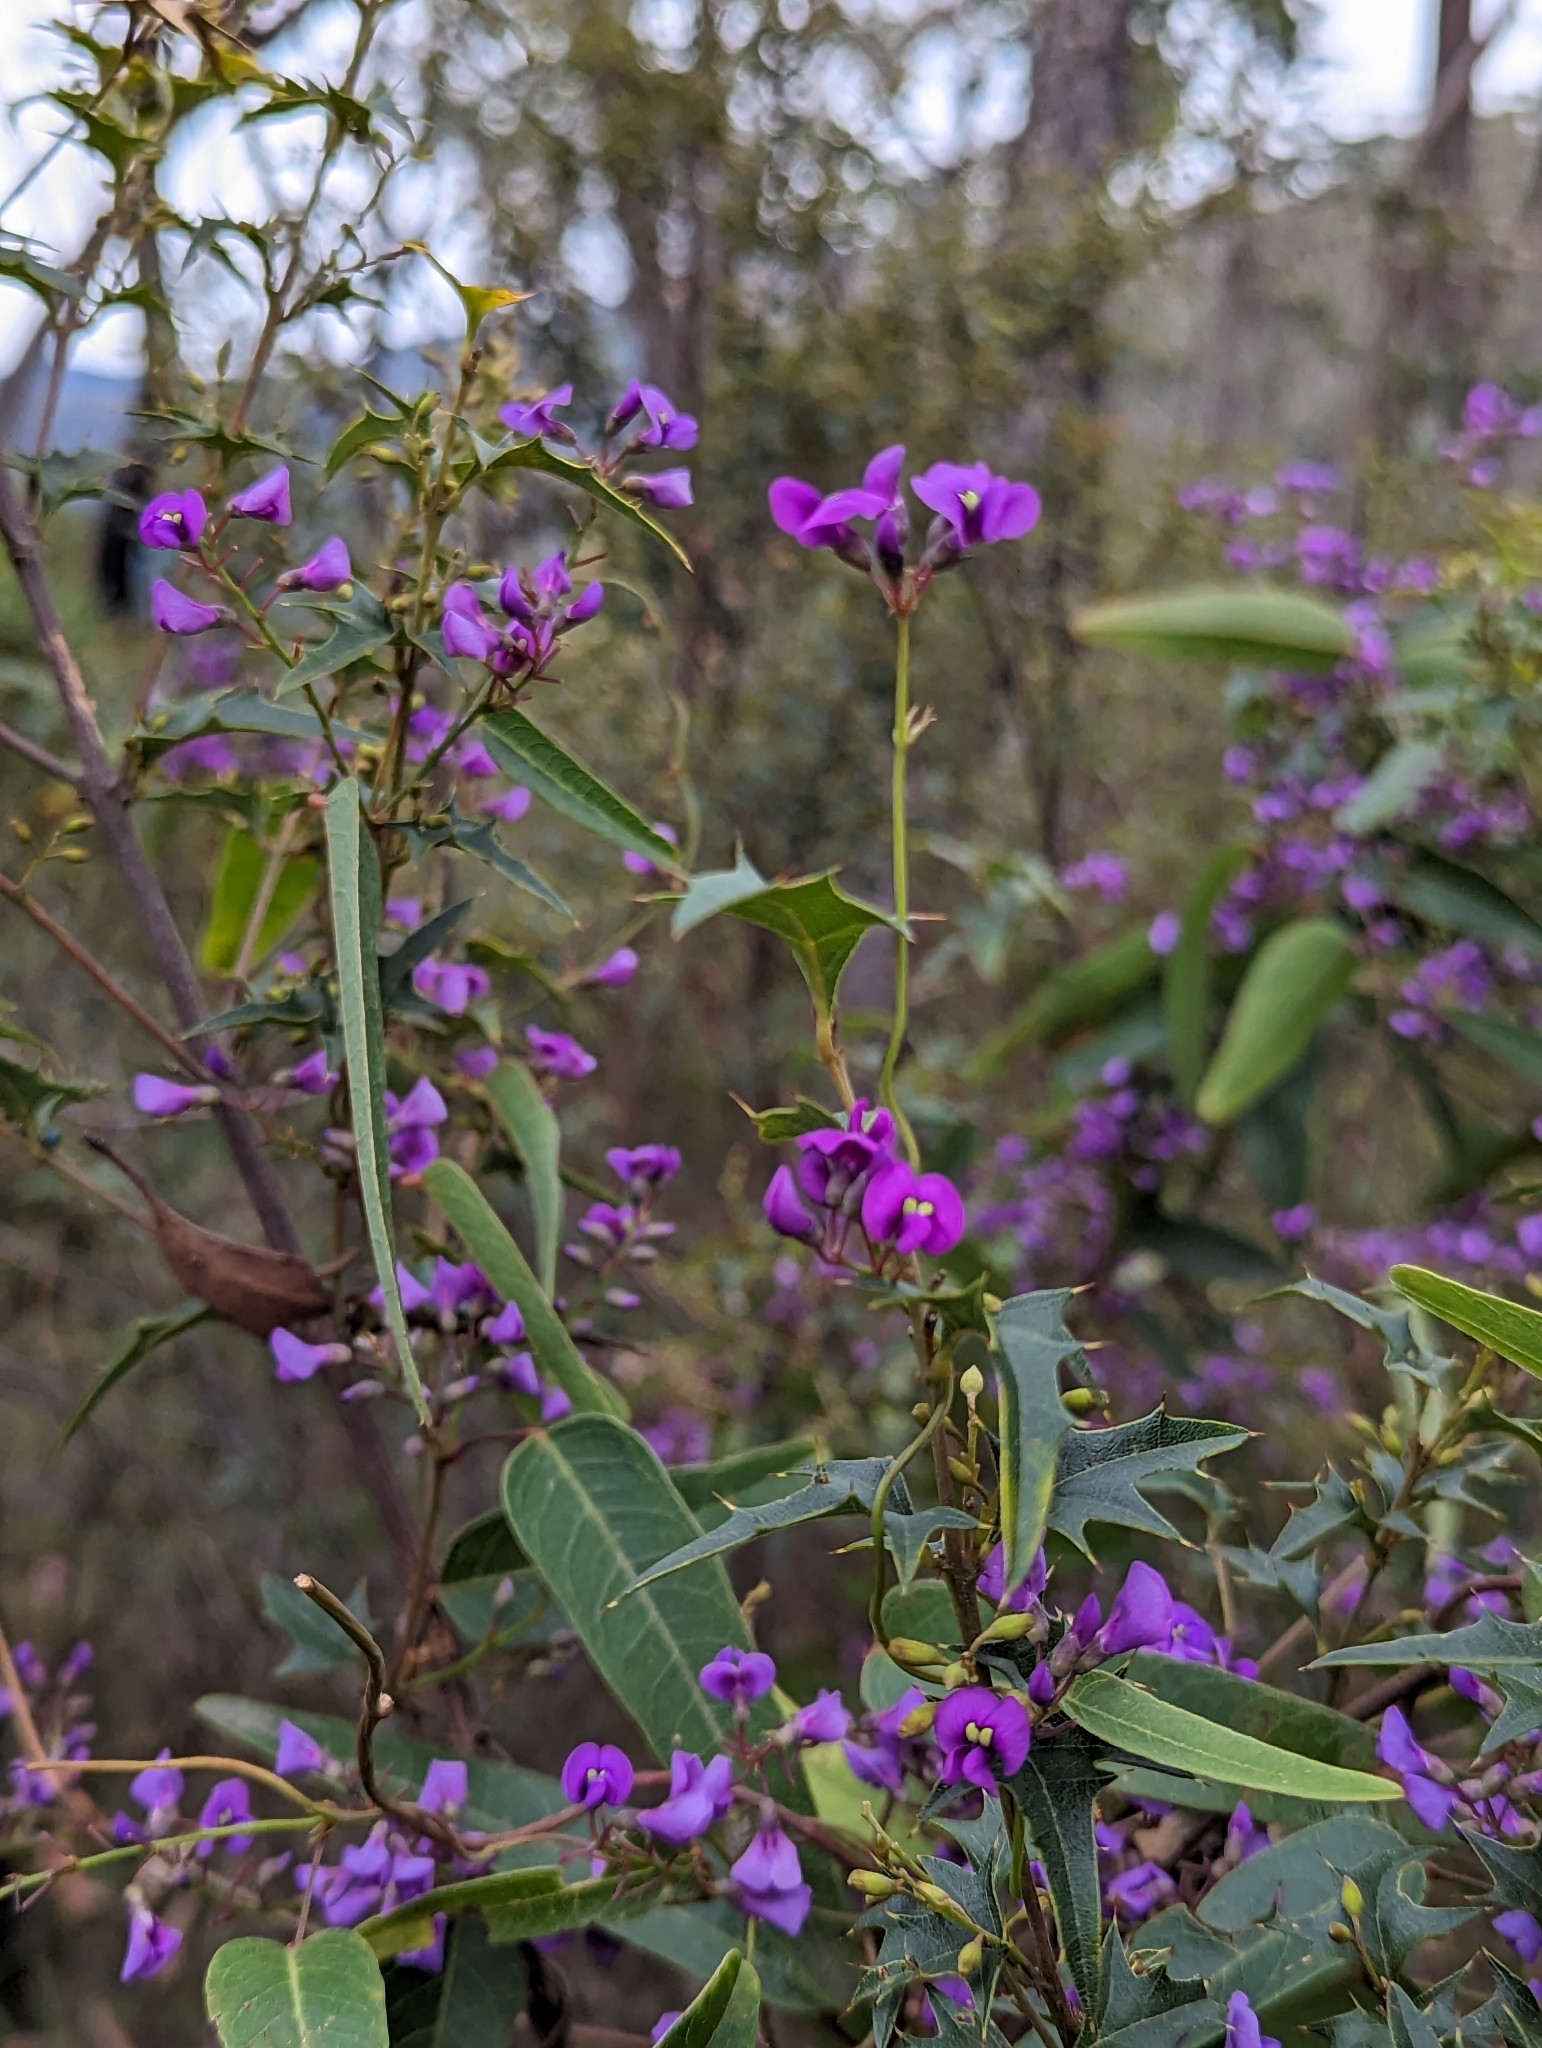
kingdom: Plantae
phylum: Tracheophyta
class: Magnoliopsida
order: Fabales
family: Fabaceae
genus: Hardenbergia
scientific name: Hardenbergia violacea
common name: Coral-pea
